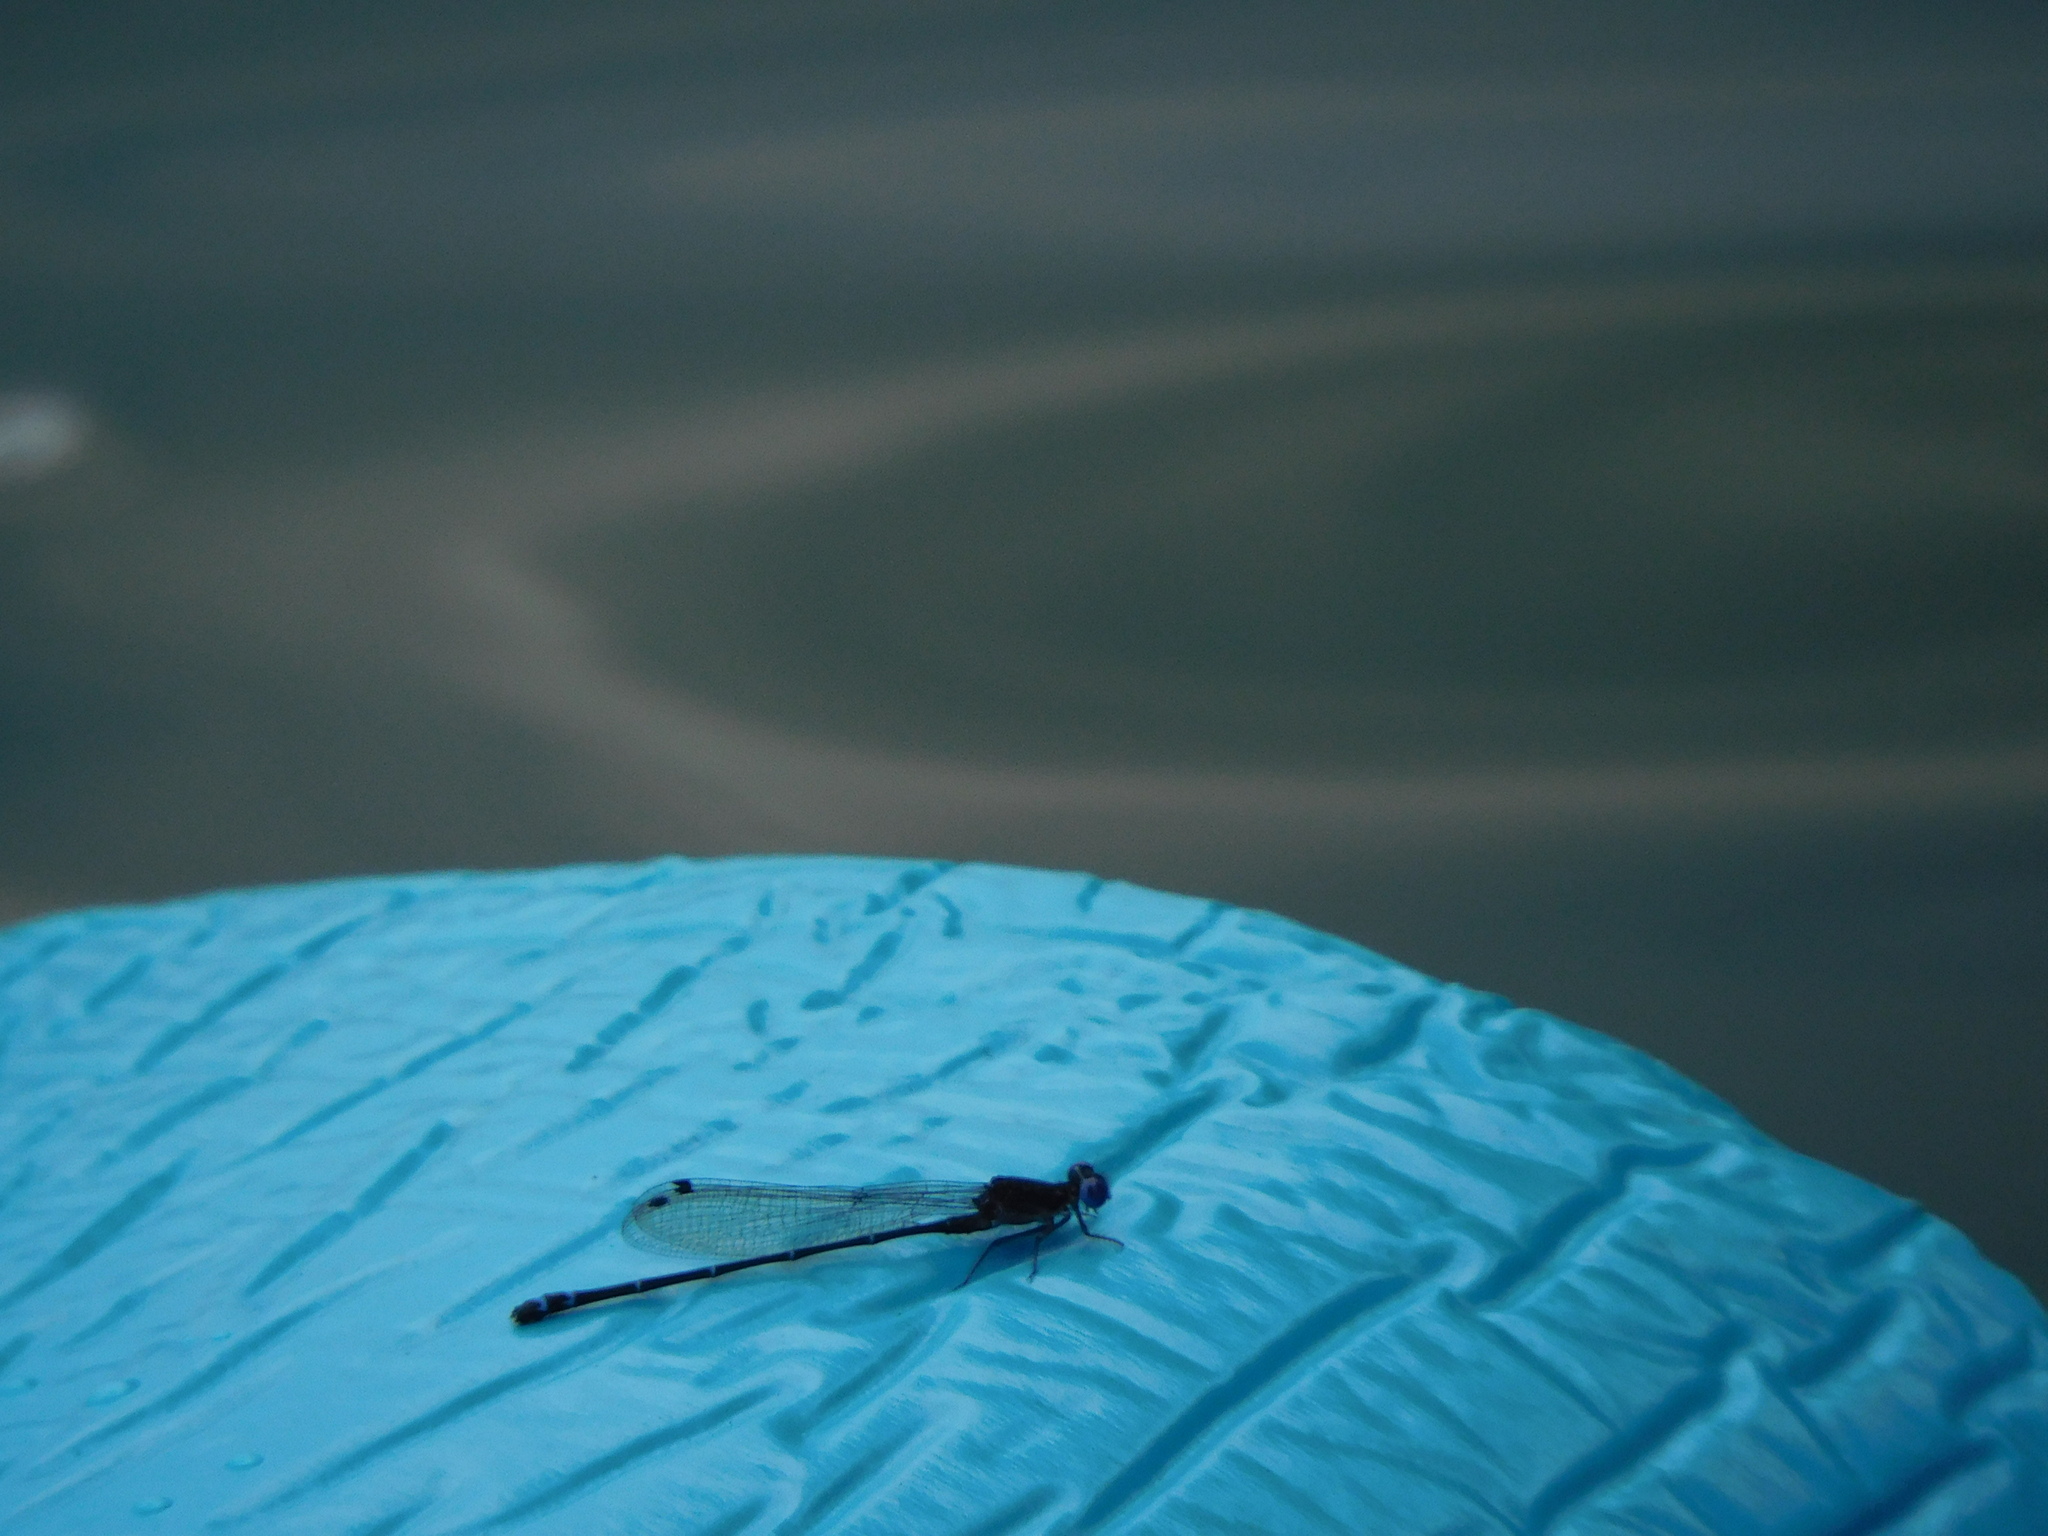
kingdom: Animalia
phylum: Arthropoda
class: Insecta
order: Odonata
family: Coenagrionidae
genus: Argia
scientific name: Argia translata
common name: Dusky dancer
